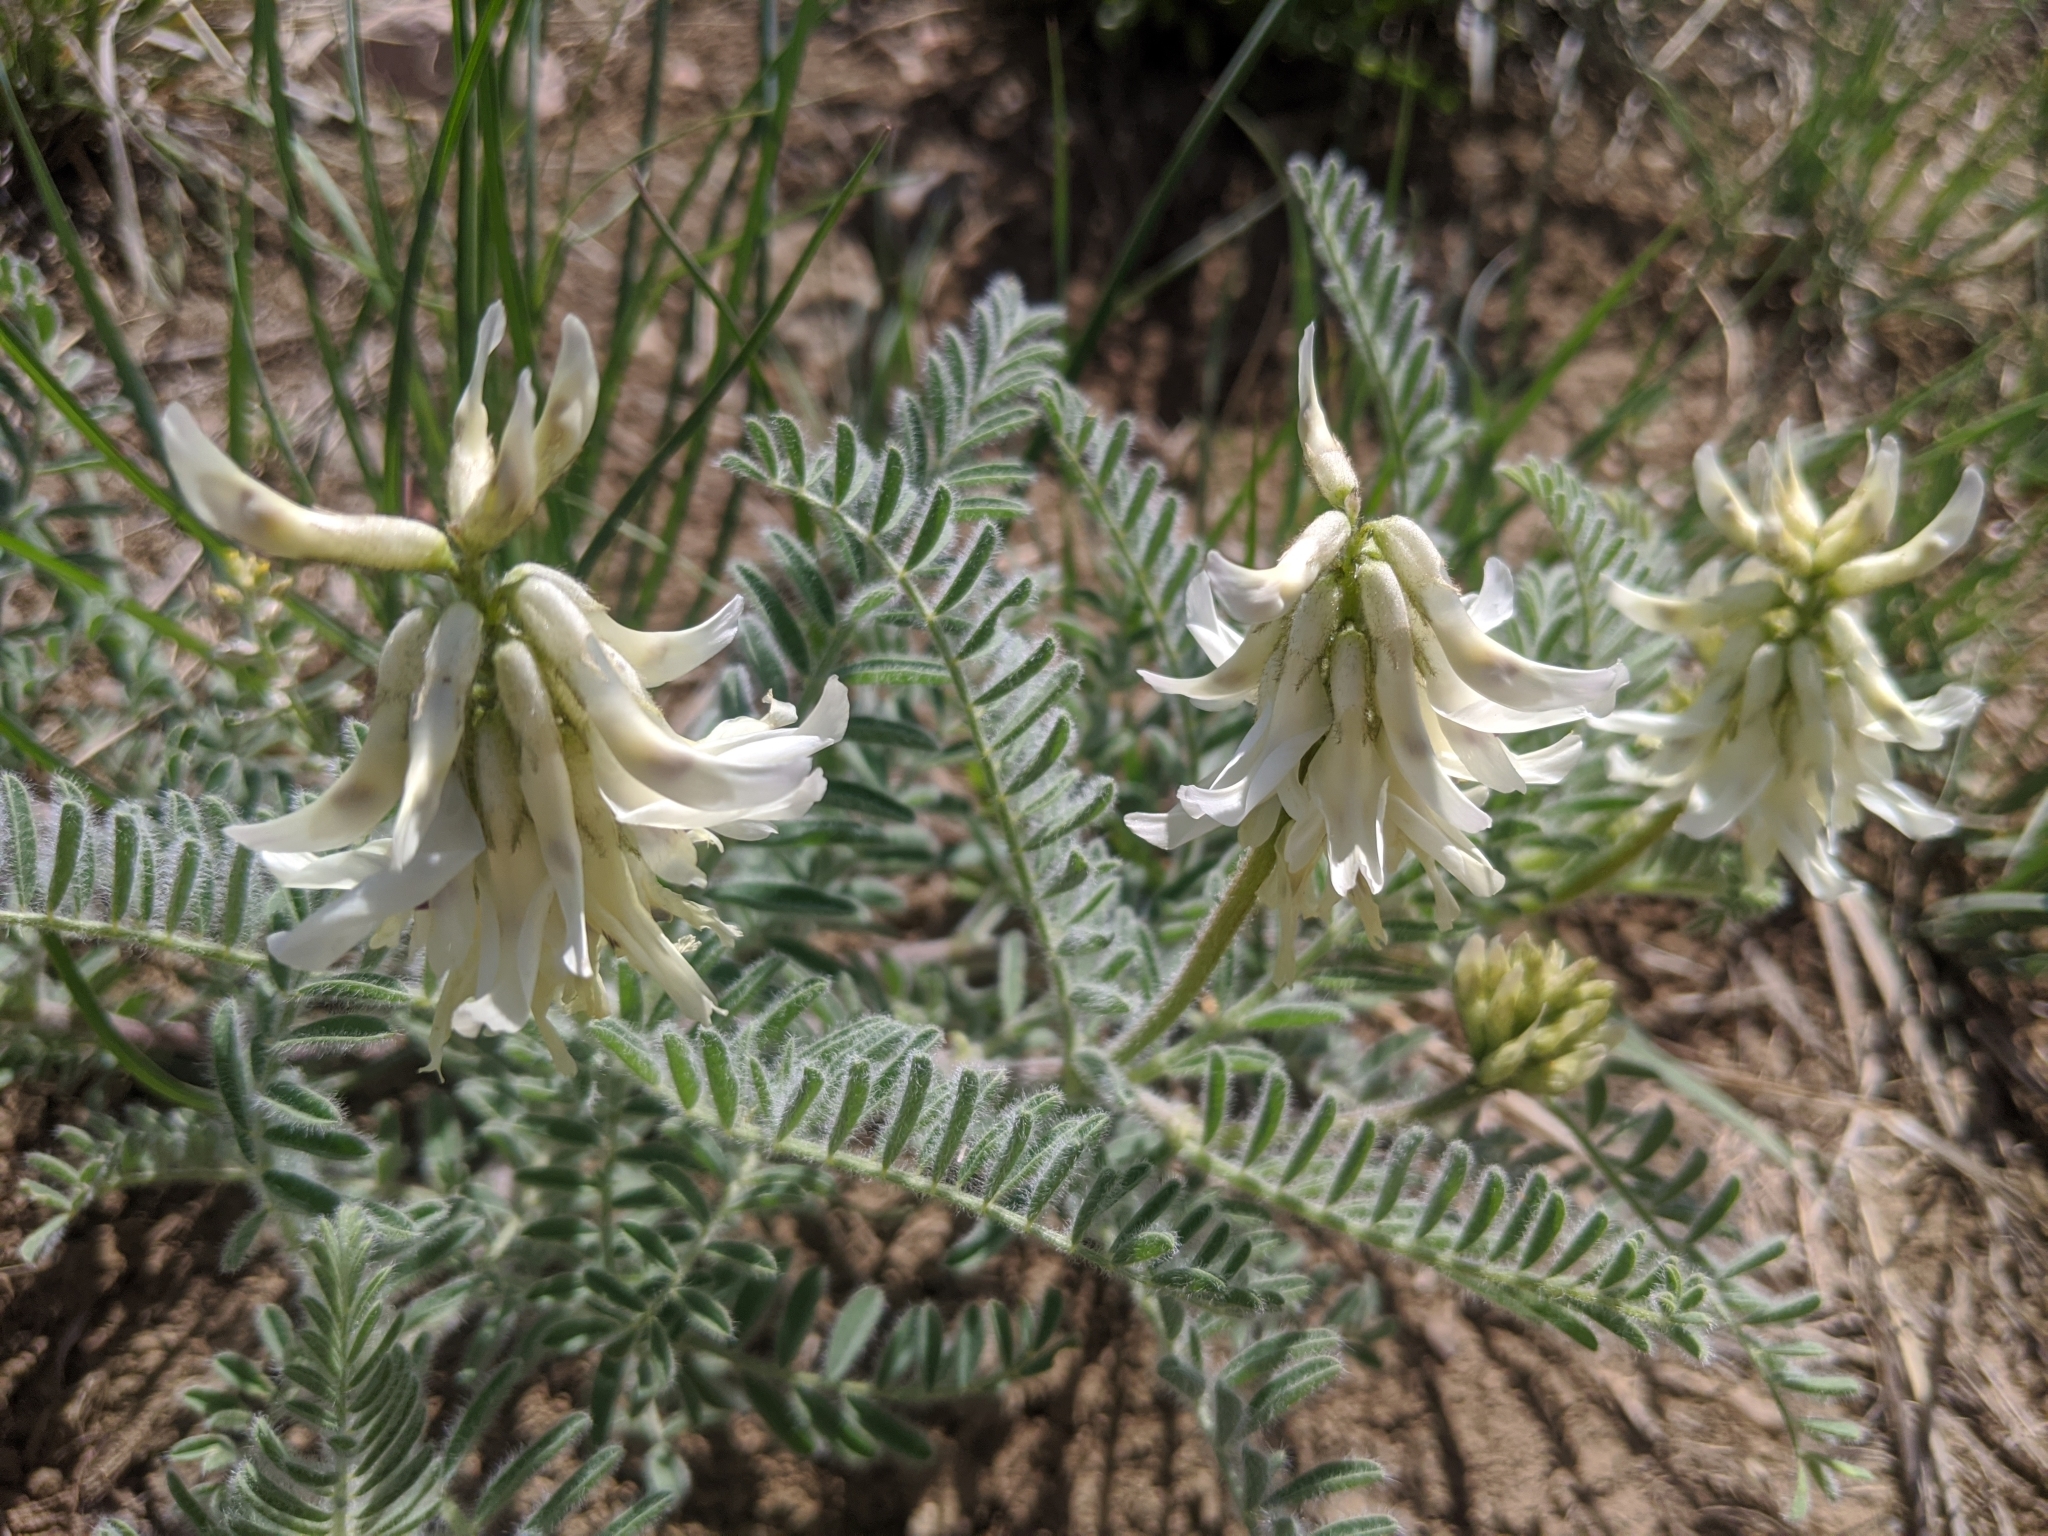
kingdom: Plantae
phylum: Tracheophyta
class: Magnoliopsida
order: Fabales
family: Fabaceae
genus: Astragalus
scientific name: Astragalus drummondii
